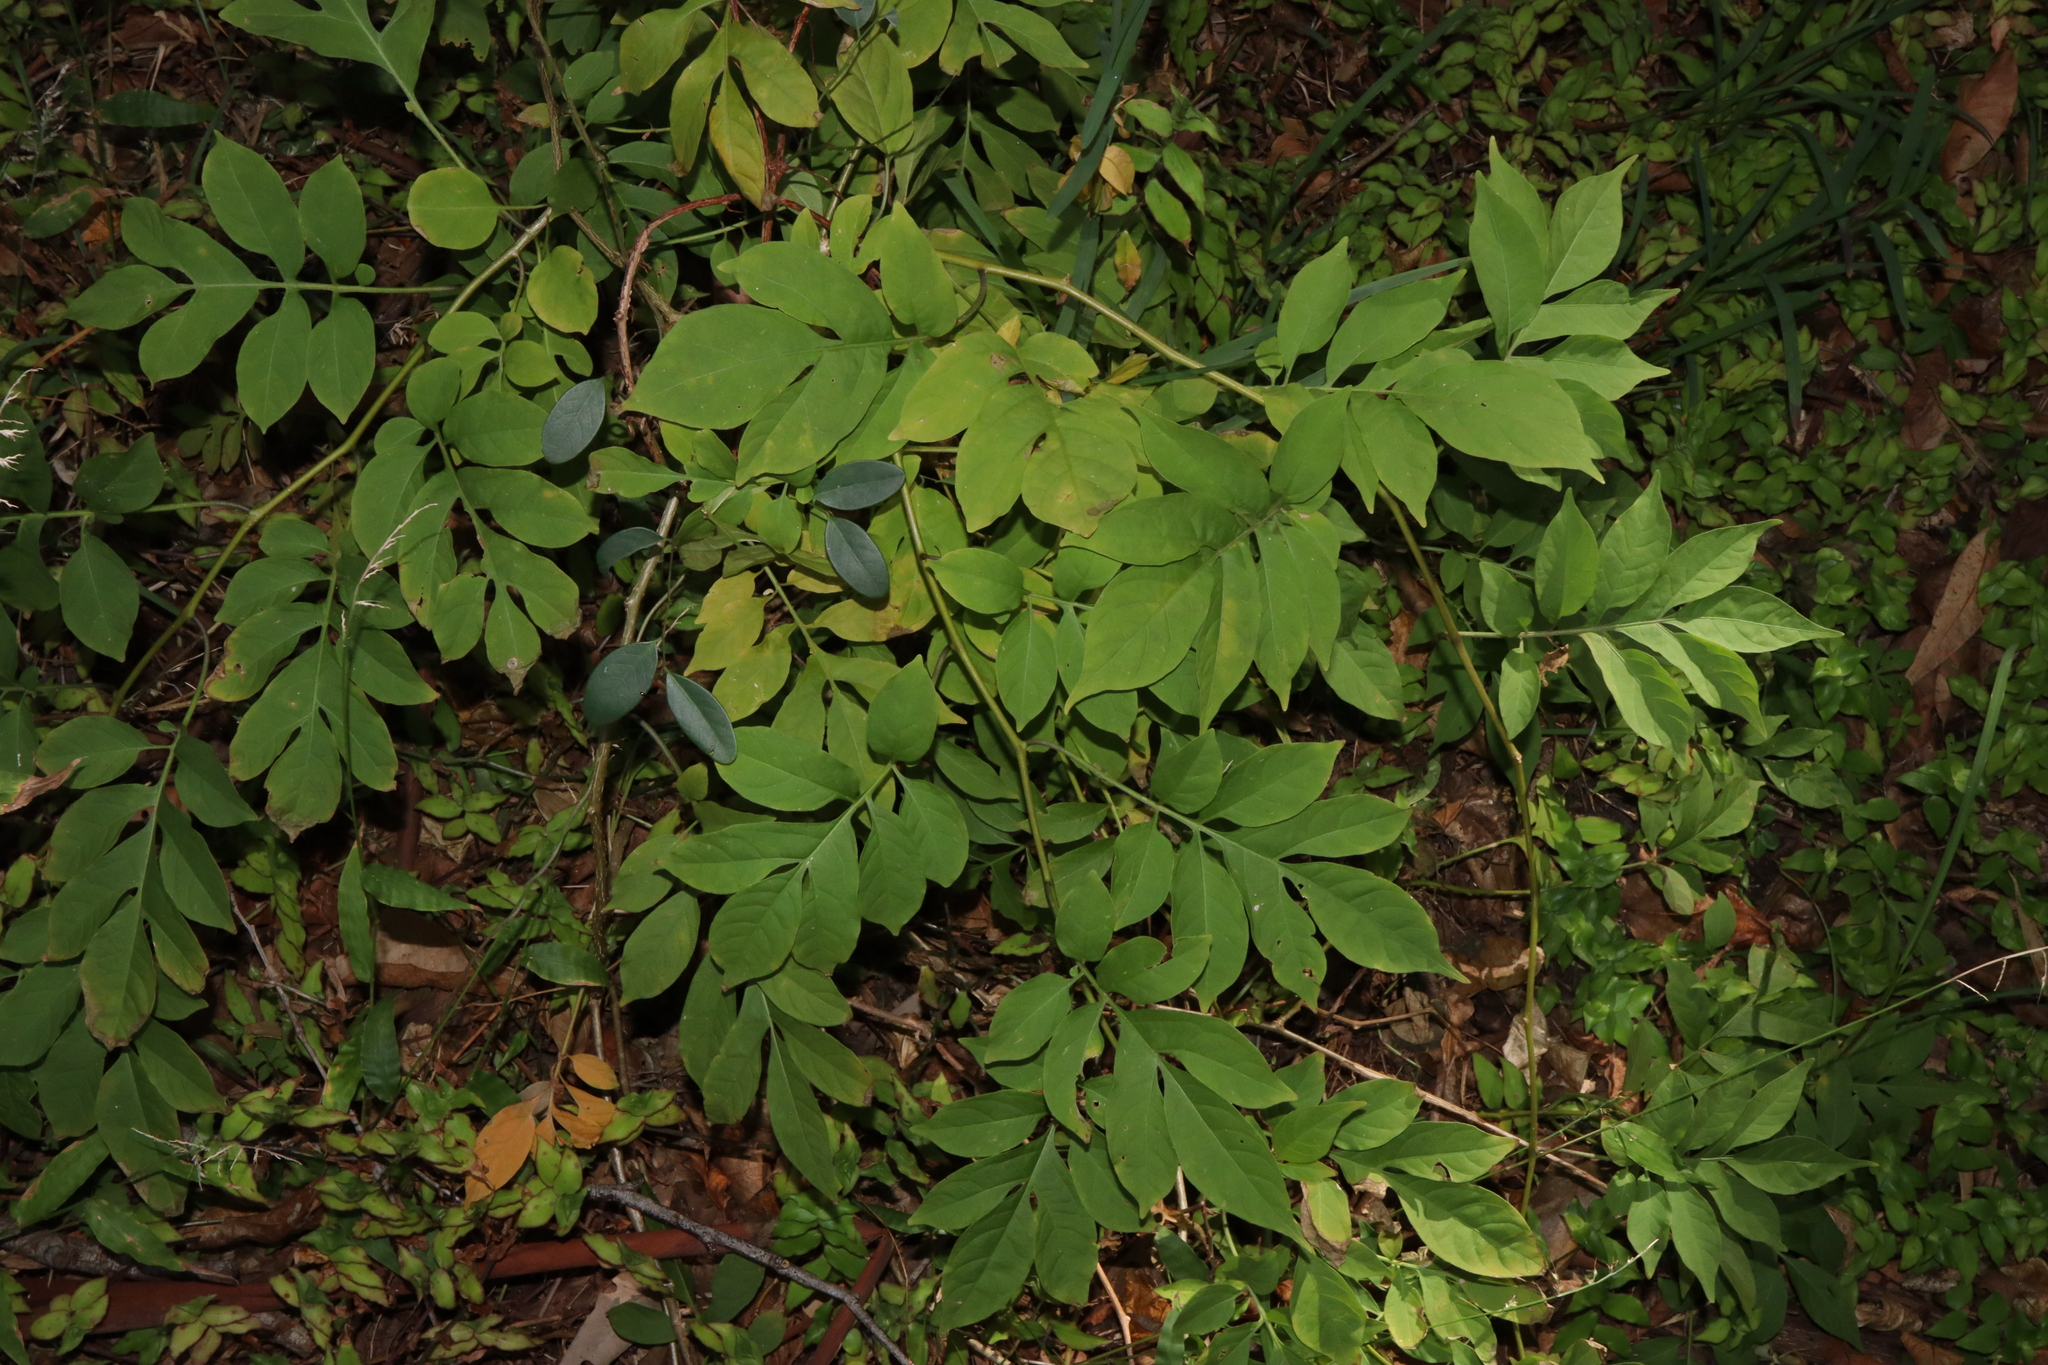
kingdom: Plantae
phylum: Tracheophyta
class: Magnoliopsida
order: Solanales
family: Solanaceae
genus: Solanum
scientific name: Solanum seaforthianum
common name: Brazilian nightshade
